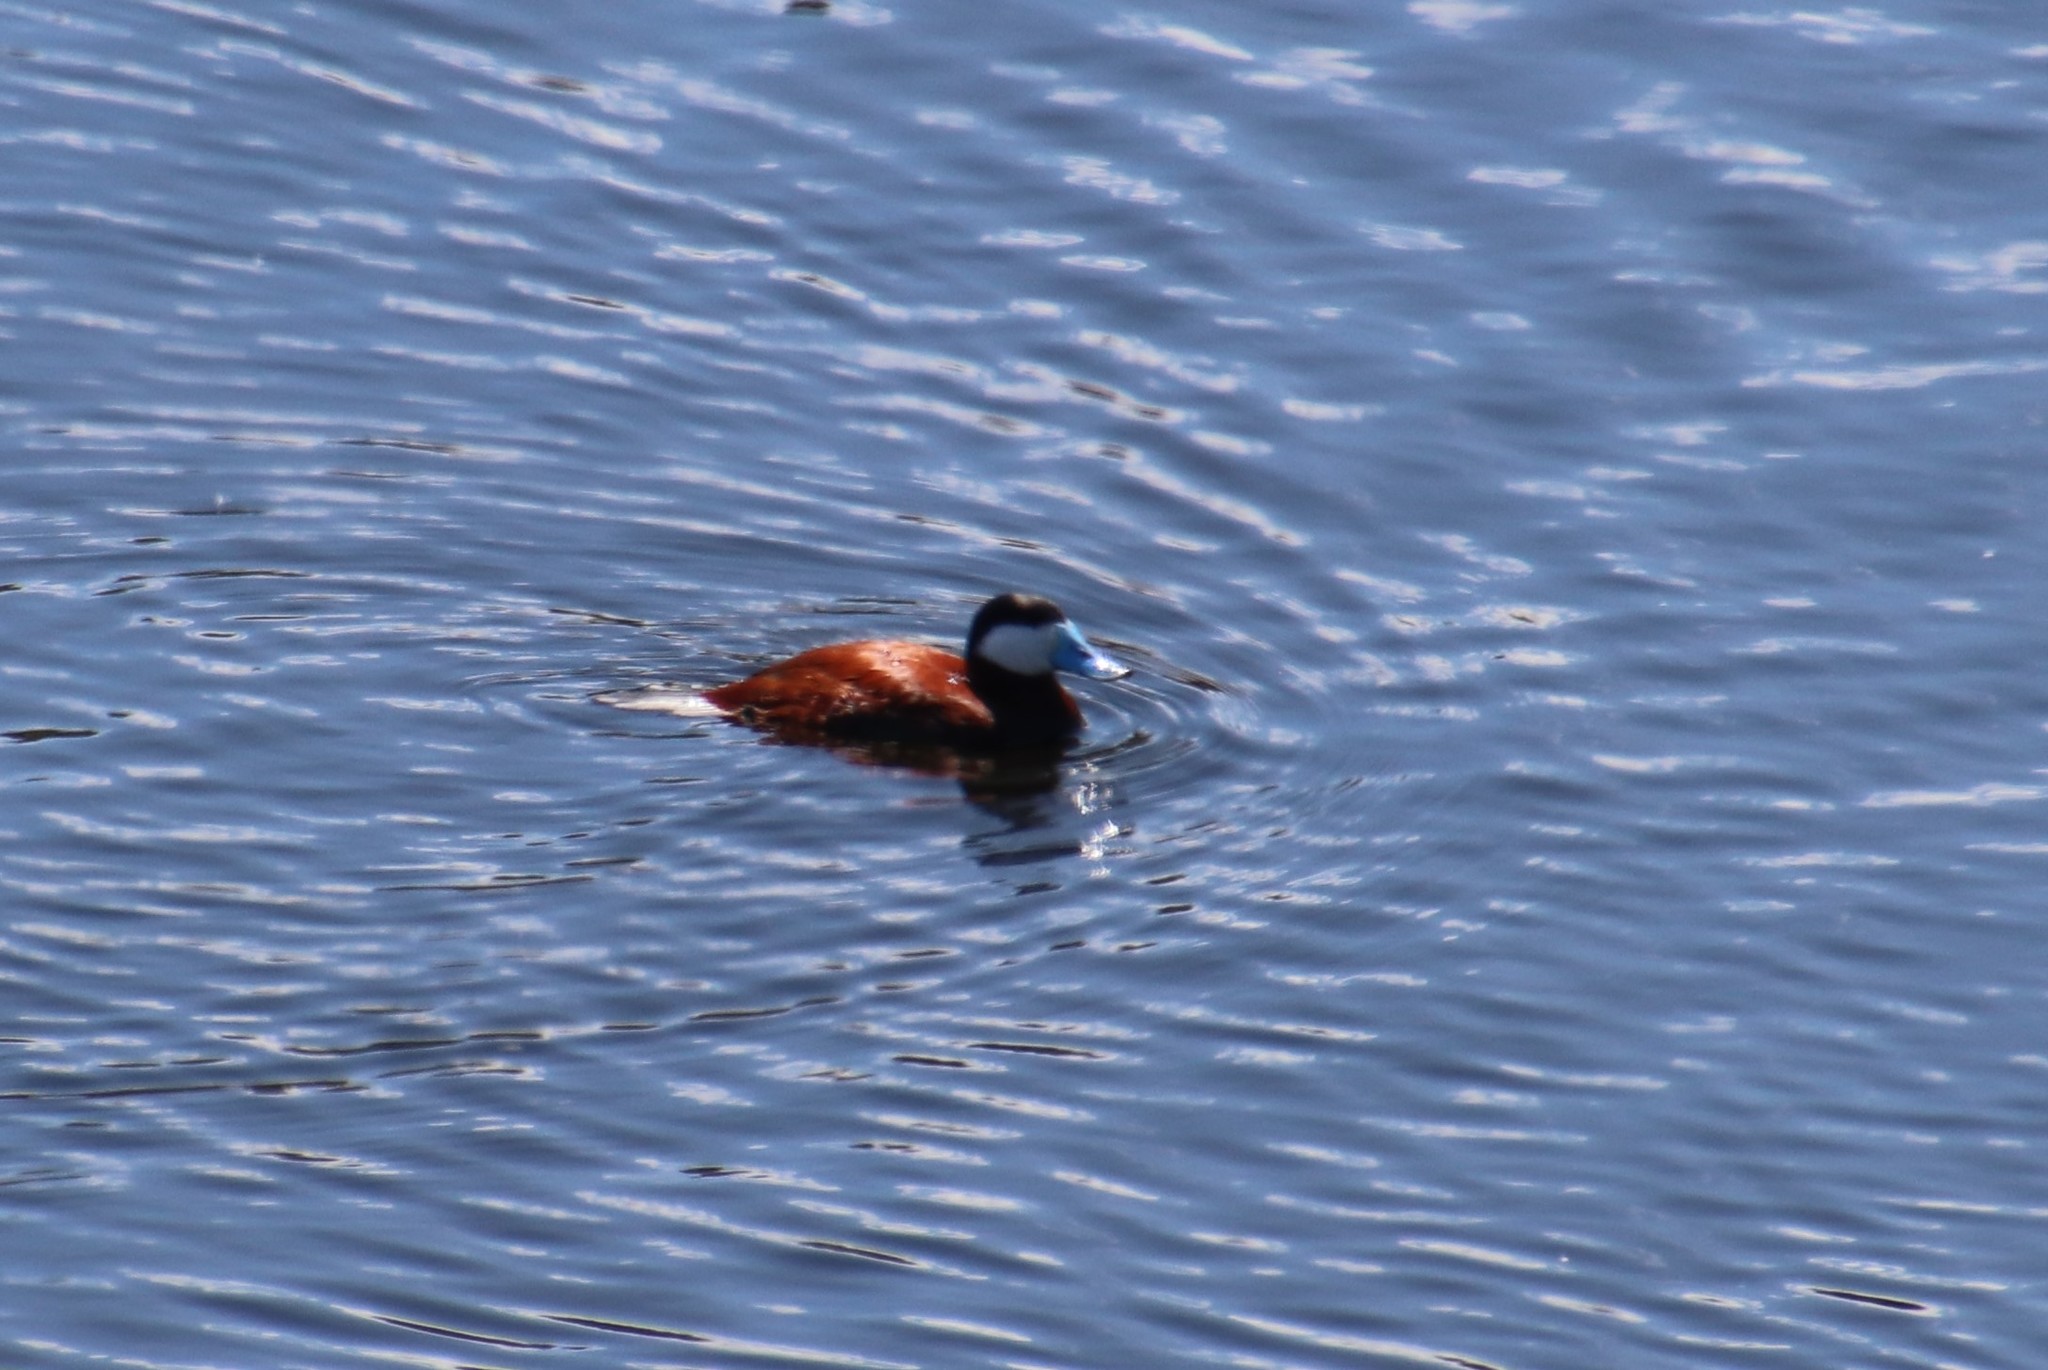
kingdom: Animalia
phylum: Chordata
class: Aves
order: Anseriformes
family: Anatidae
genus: Oxyura
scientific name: Oxyura jamaicensis
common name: Ruddy duck
